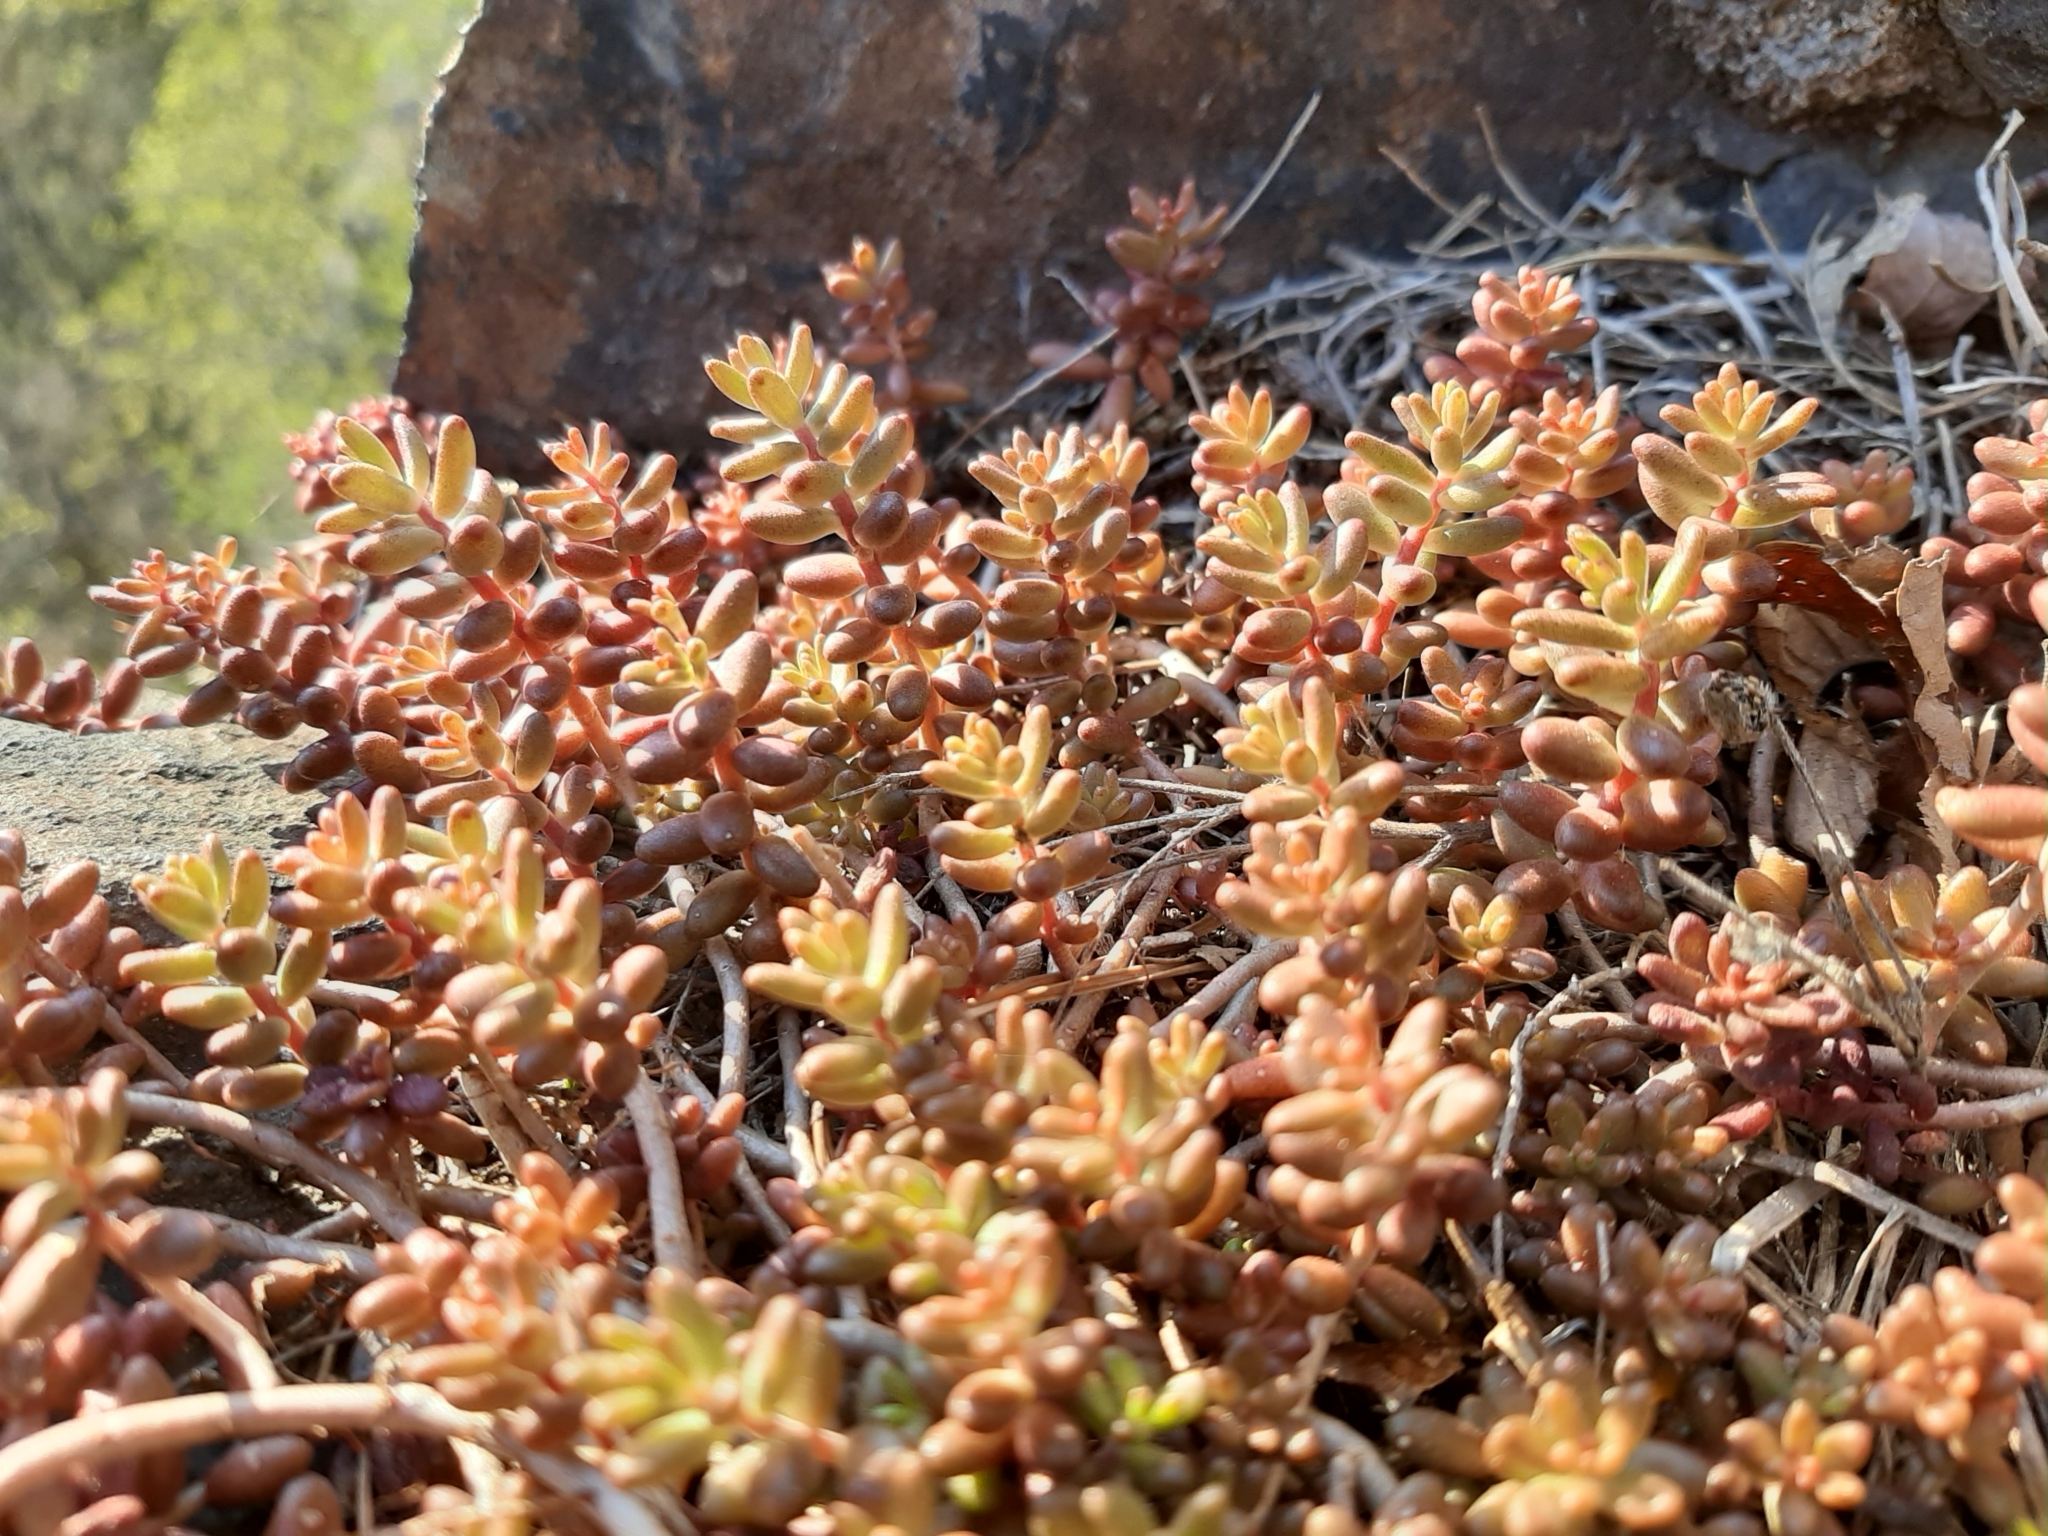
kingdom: Plantae
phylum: Tracheophyta
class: Magnoliopsida
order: Saxifragales
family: Crassulaceae
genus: Sedum
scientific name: Sedum album
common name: White stonecrop
